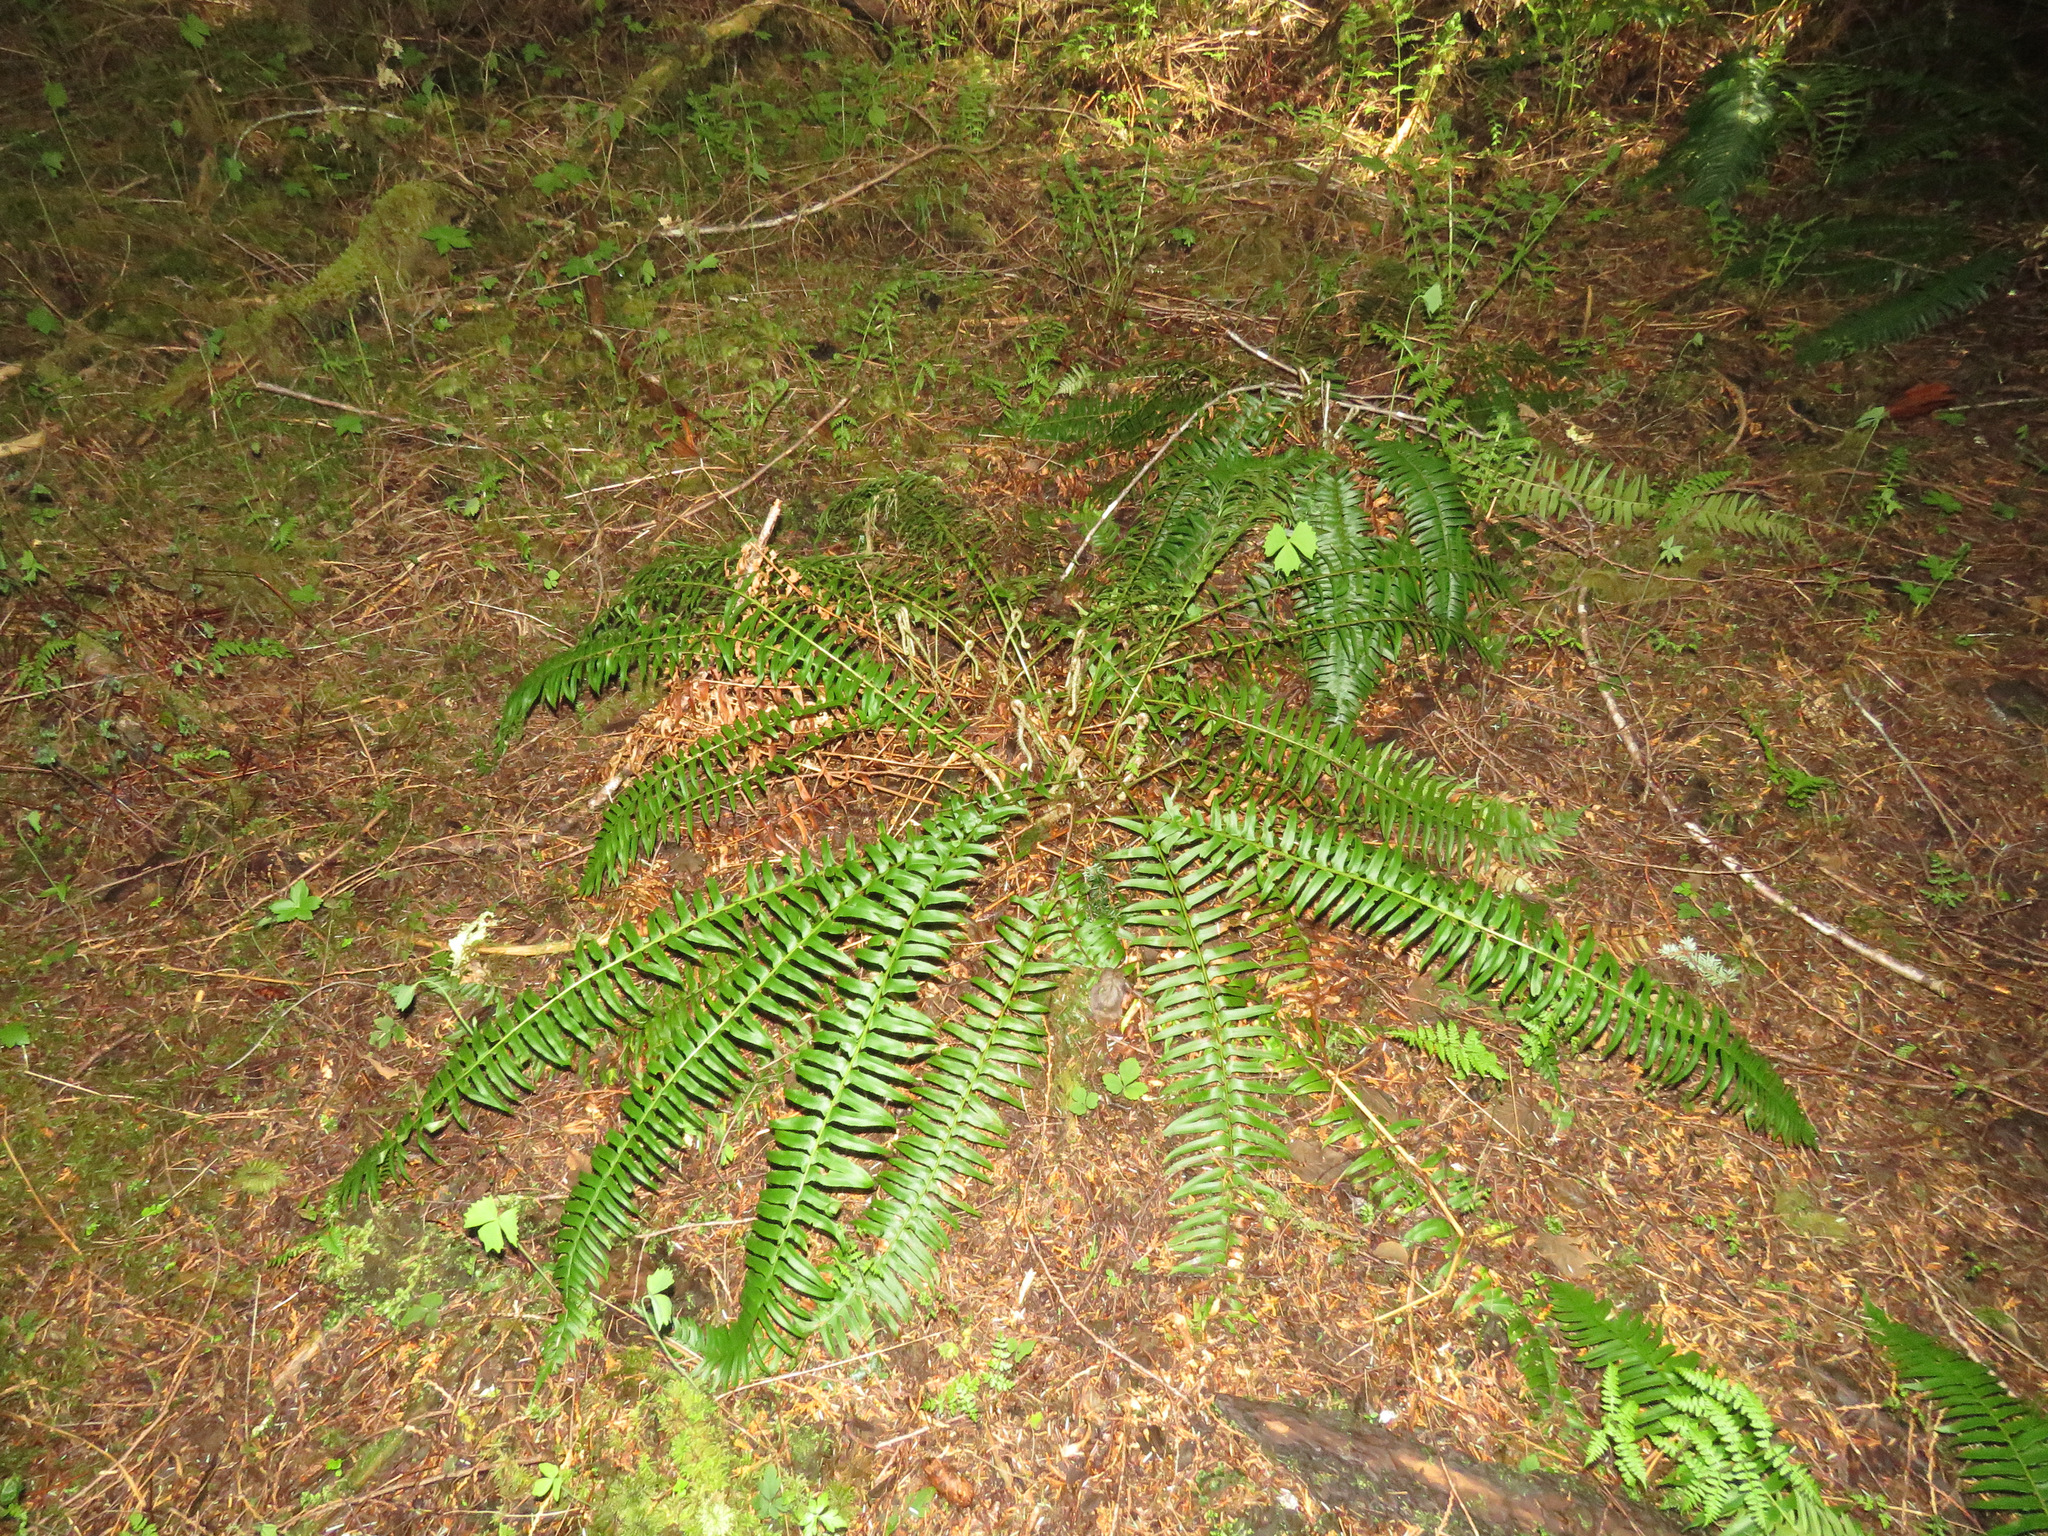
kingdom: Plantae
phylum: Tracheophyta
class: Polypodiopsida
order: Polypodiales
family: Dryopteridaceae
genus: Polystichum
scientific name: Polystichum munitum
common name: Western sword-fern
